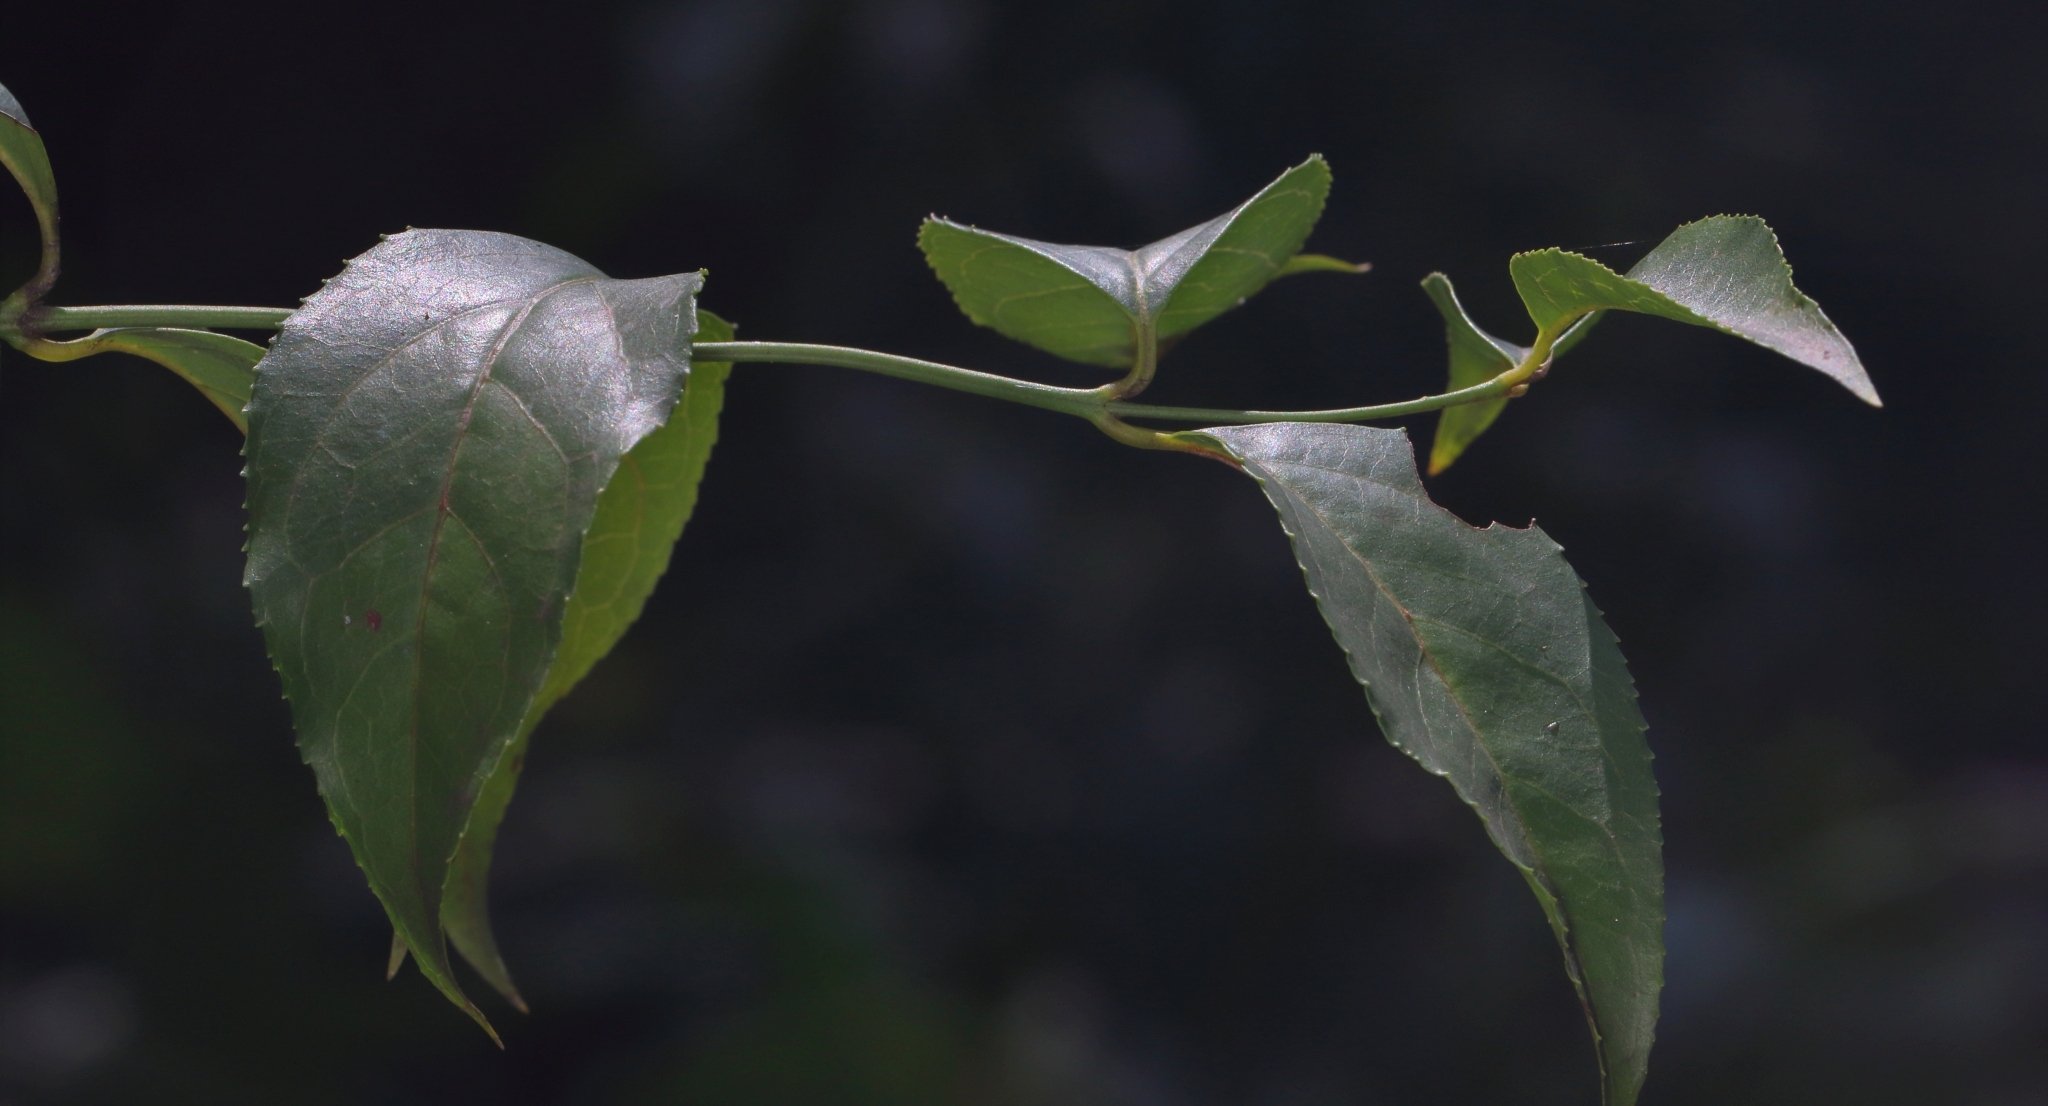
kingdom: Plantae
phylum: Tracheophyta
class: Magnoliopsida
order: Lamiales
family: Stilbaceae
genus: Halleria
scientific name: Halleria lucida
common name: Tree fuschia
